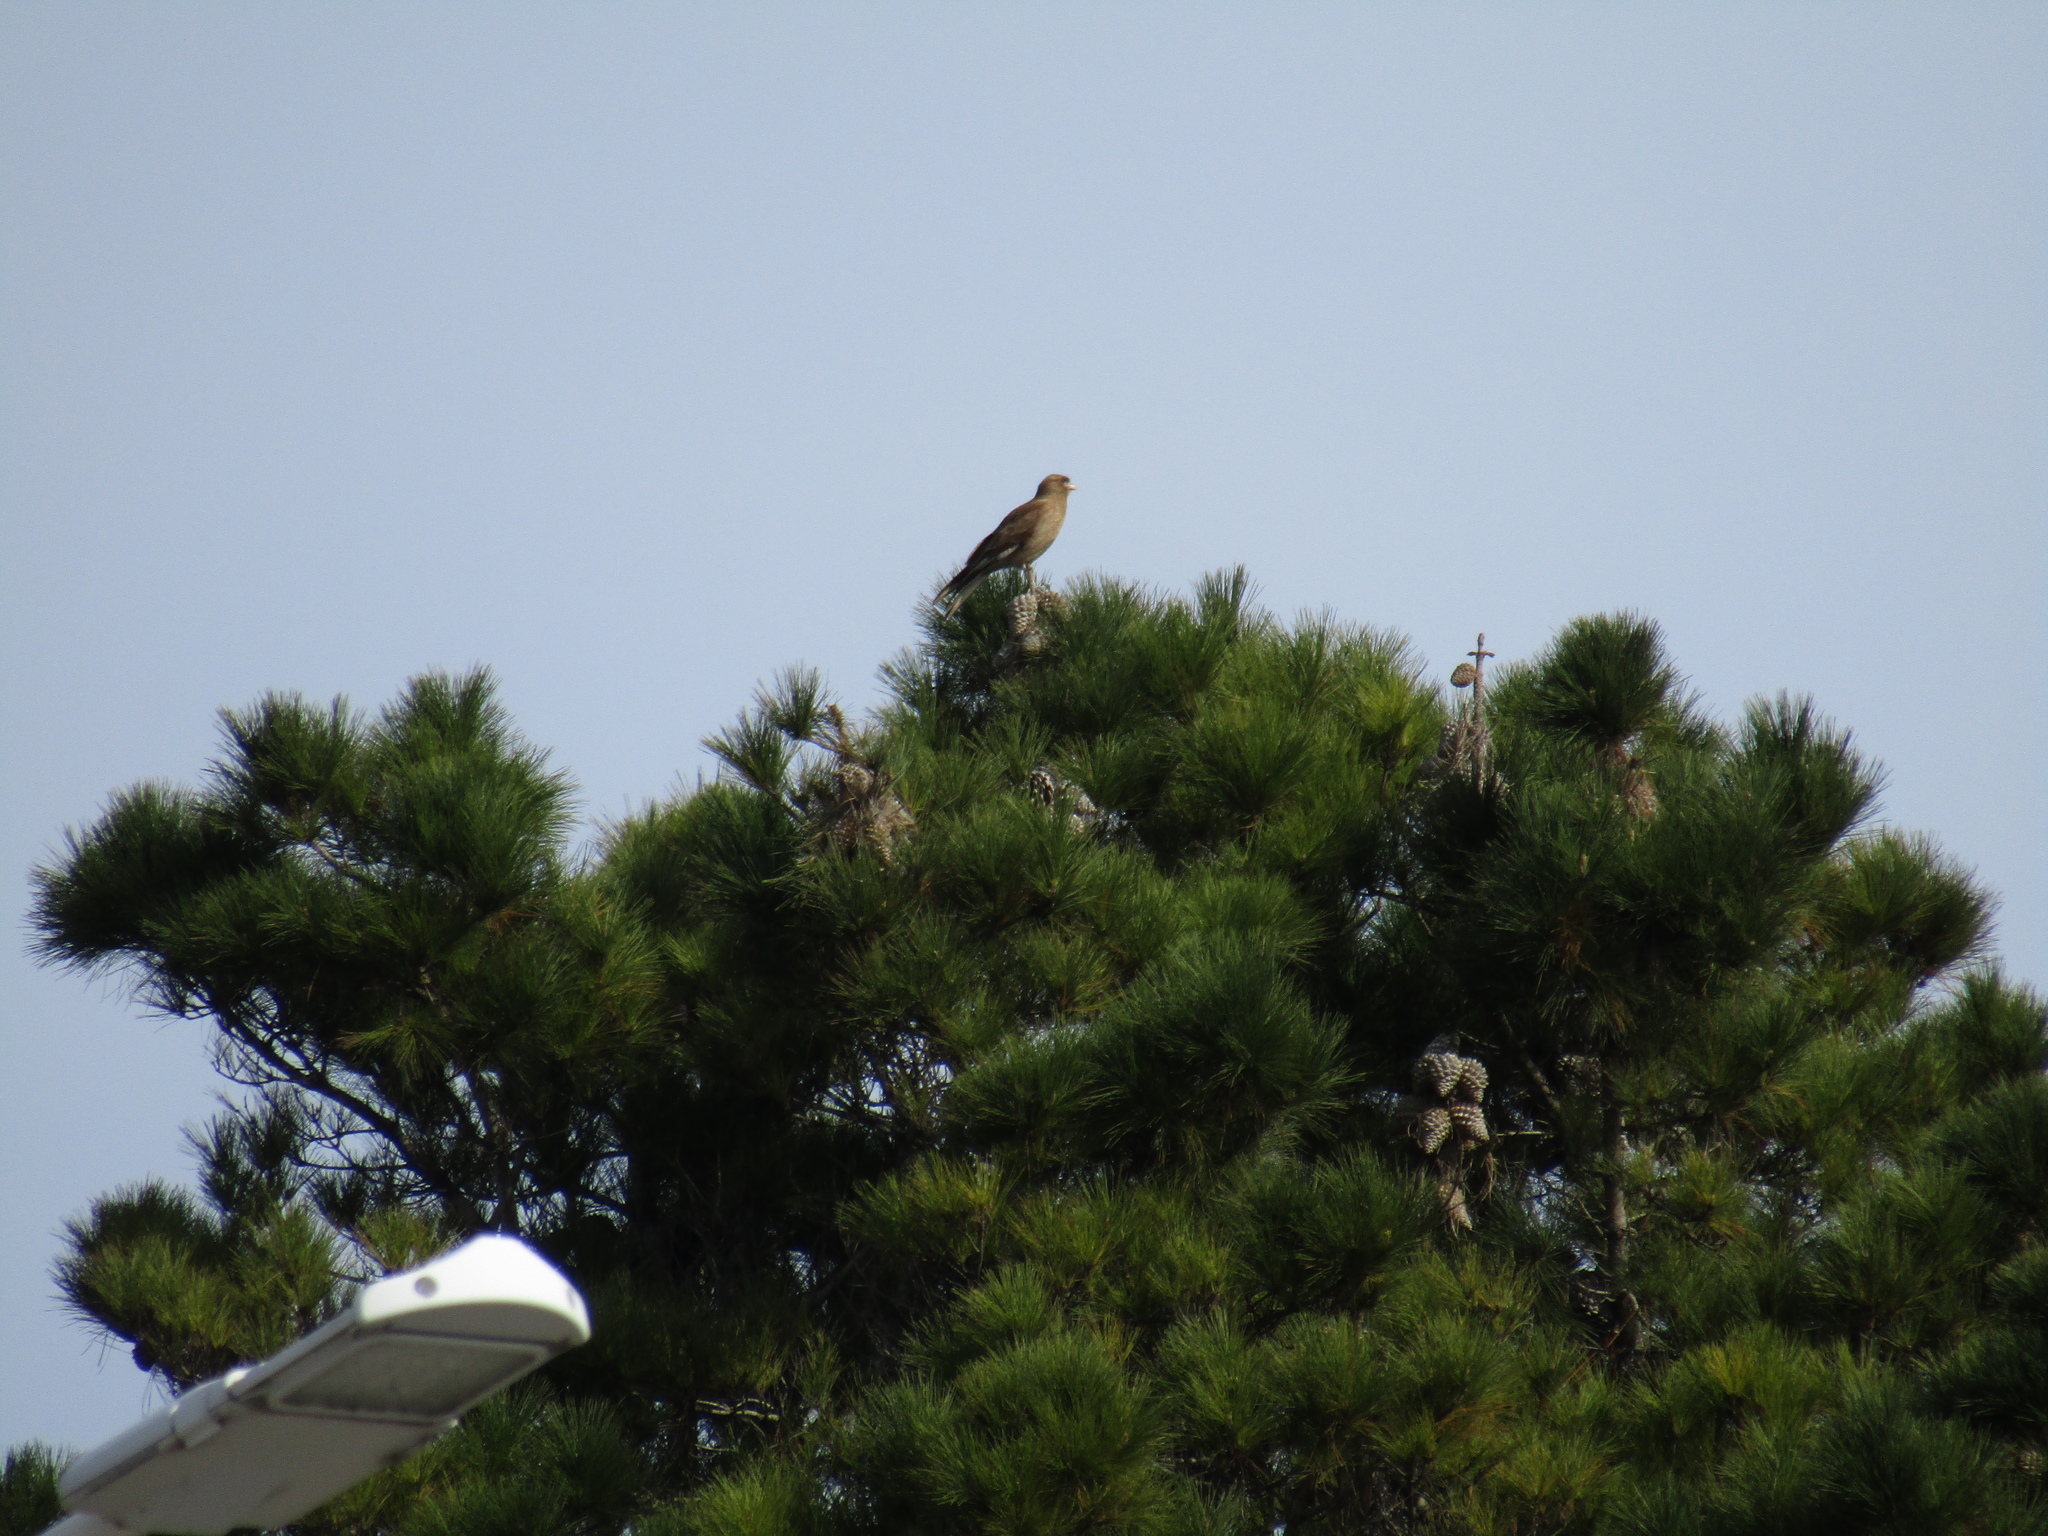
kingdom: Animalia
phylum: Chordata
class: Aves
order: Falconiformes
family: Falconidae
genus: Daptrius
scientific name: Daptrius
